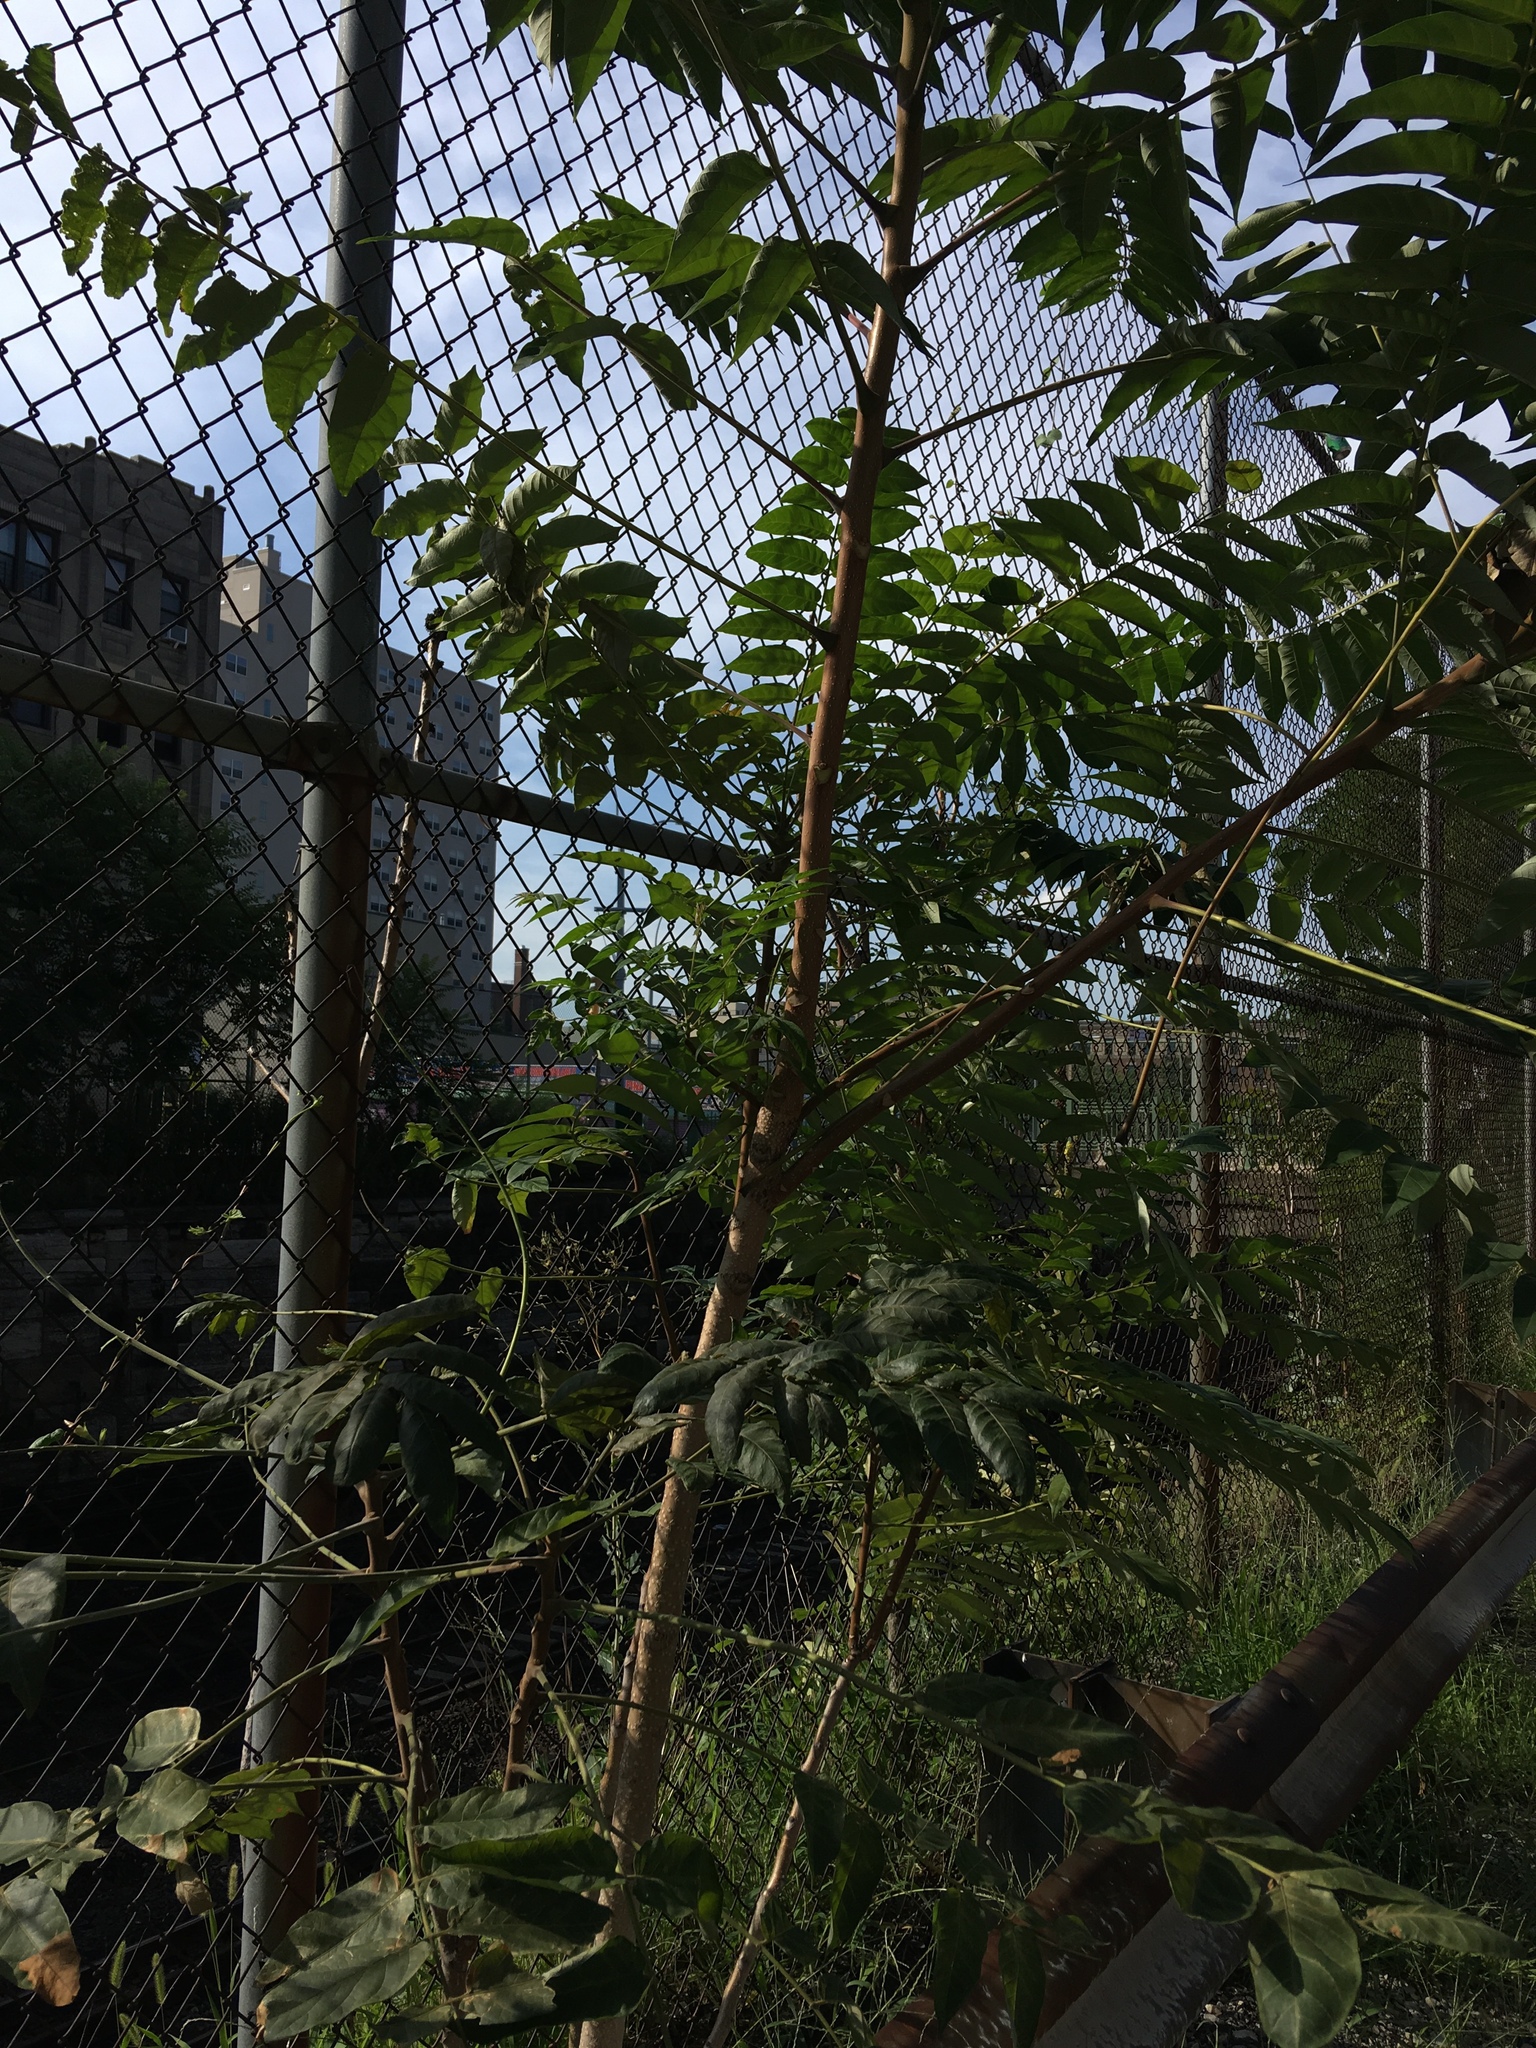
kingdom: Plantae
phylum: Tracheophyta
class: Magnoliopsida
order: Sapindales
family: Simaroubaceae
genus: Ailanthus
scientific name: Ailanthus altissima
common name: Tree-of-heaven
